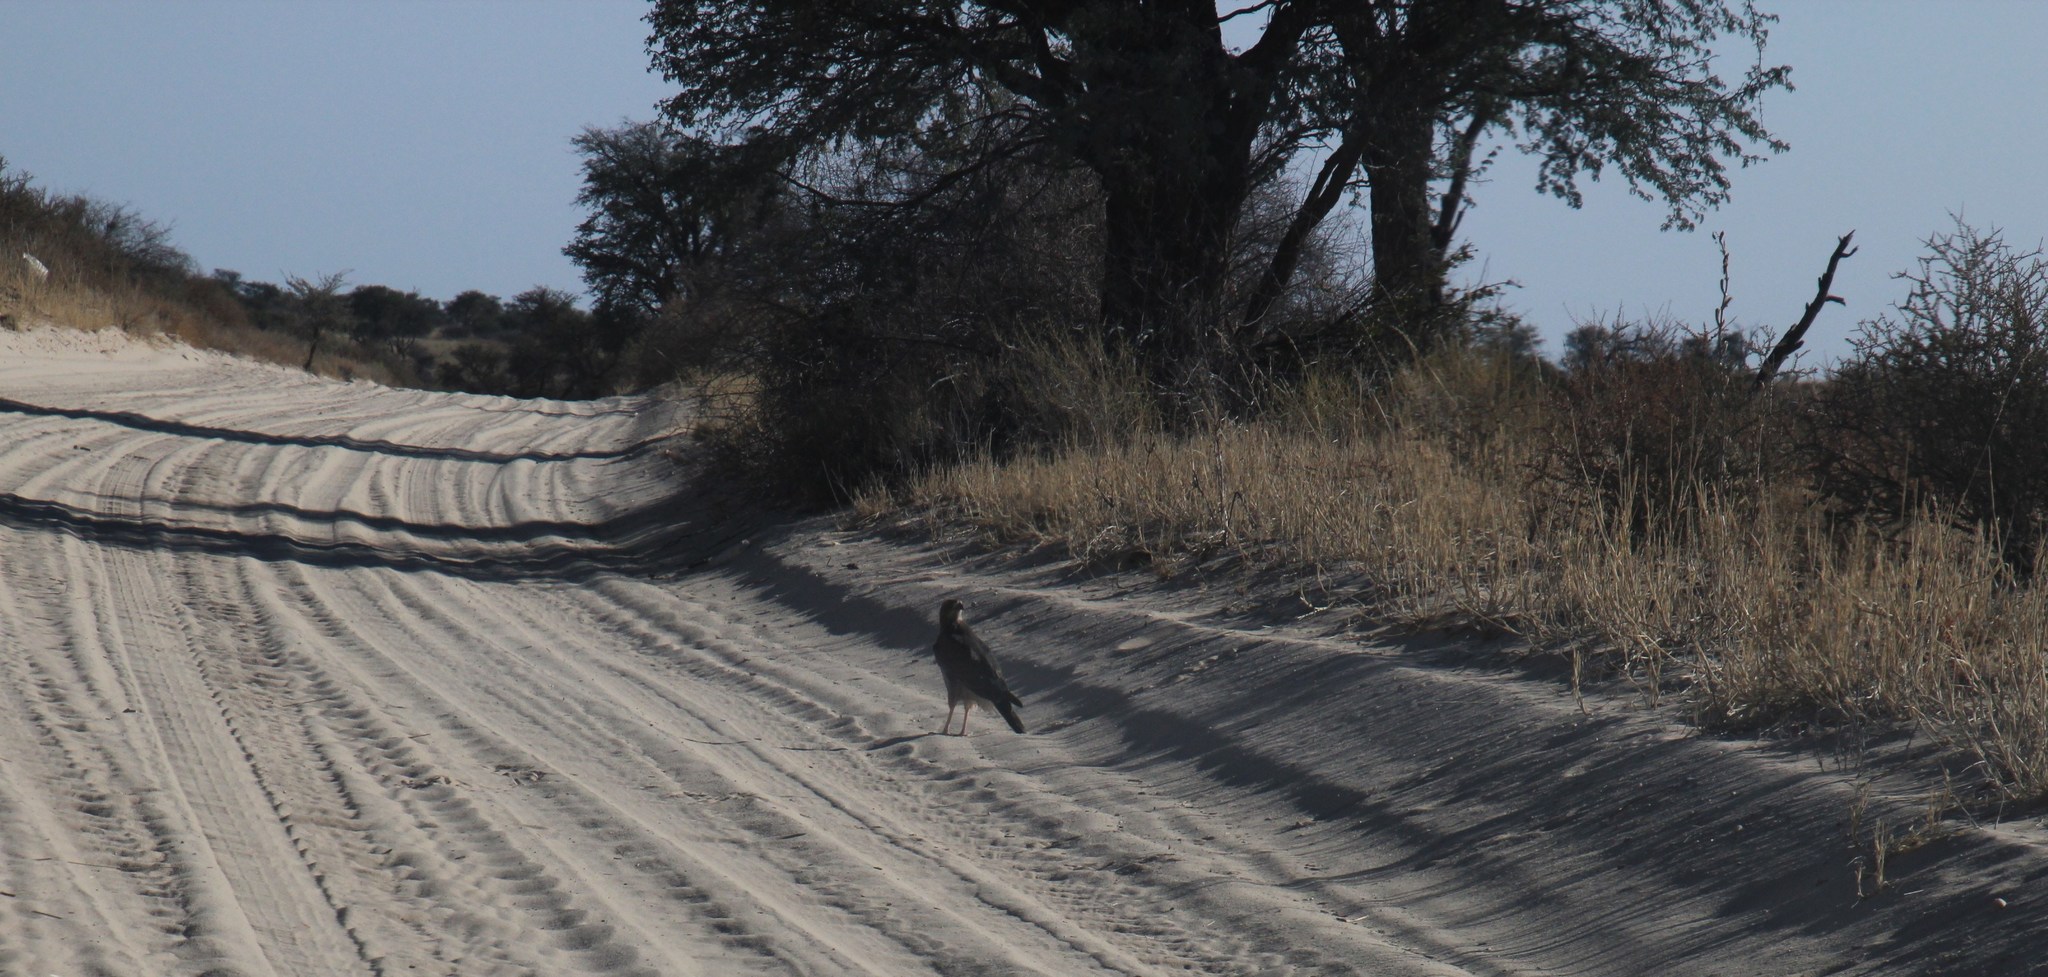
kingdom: Animalia
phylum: Chordata
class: Aves
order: Accipitriformes
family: Accipitridae
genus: Melierax
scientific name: Melierax canorus
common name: Pale chanting-goshawk
